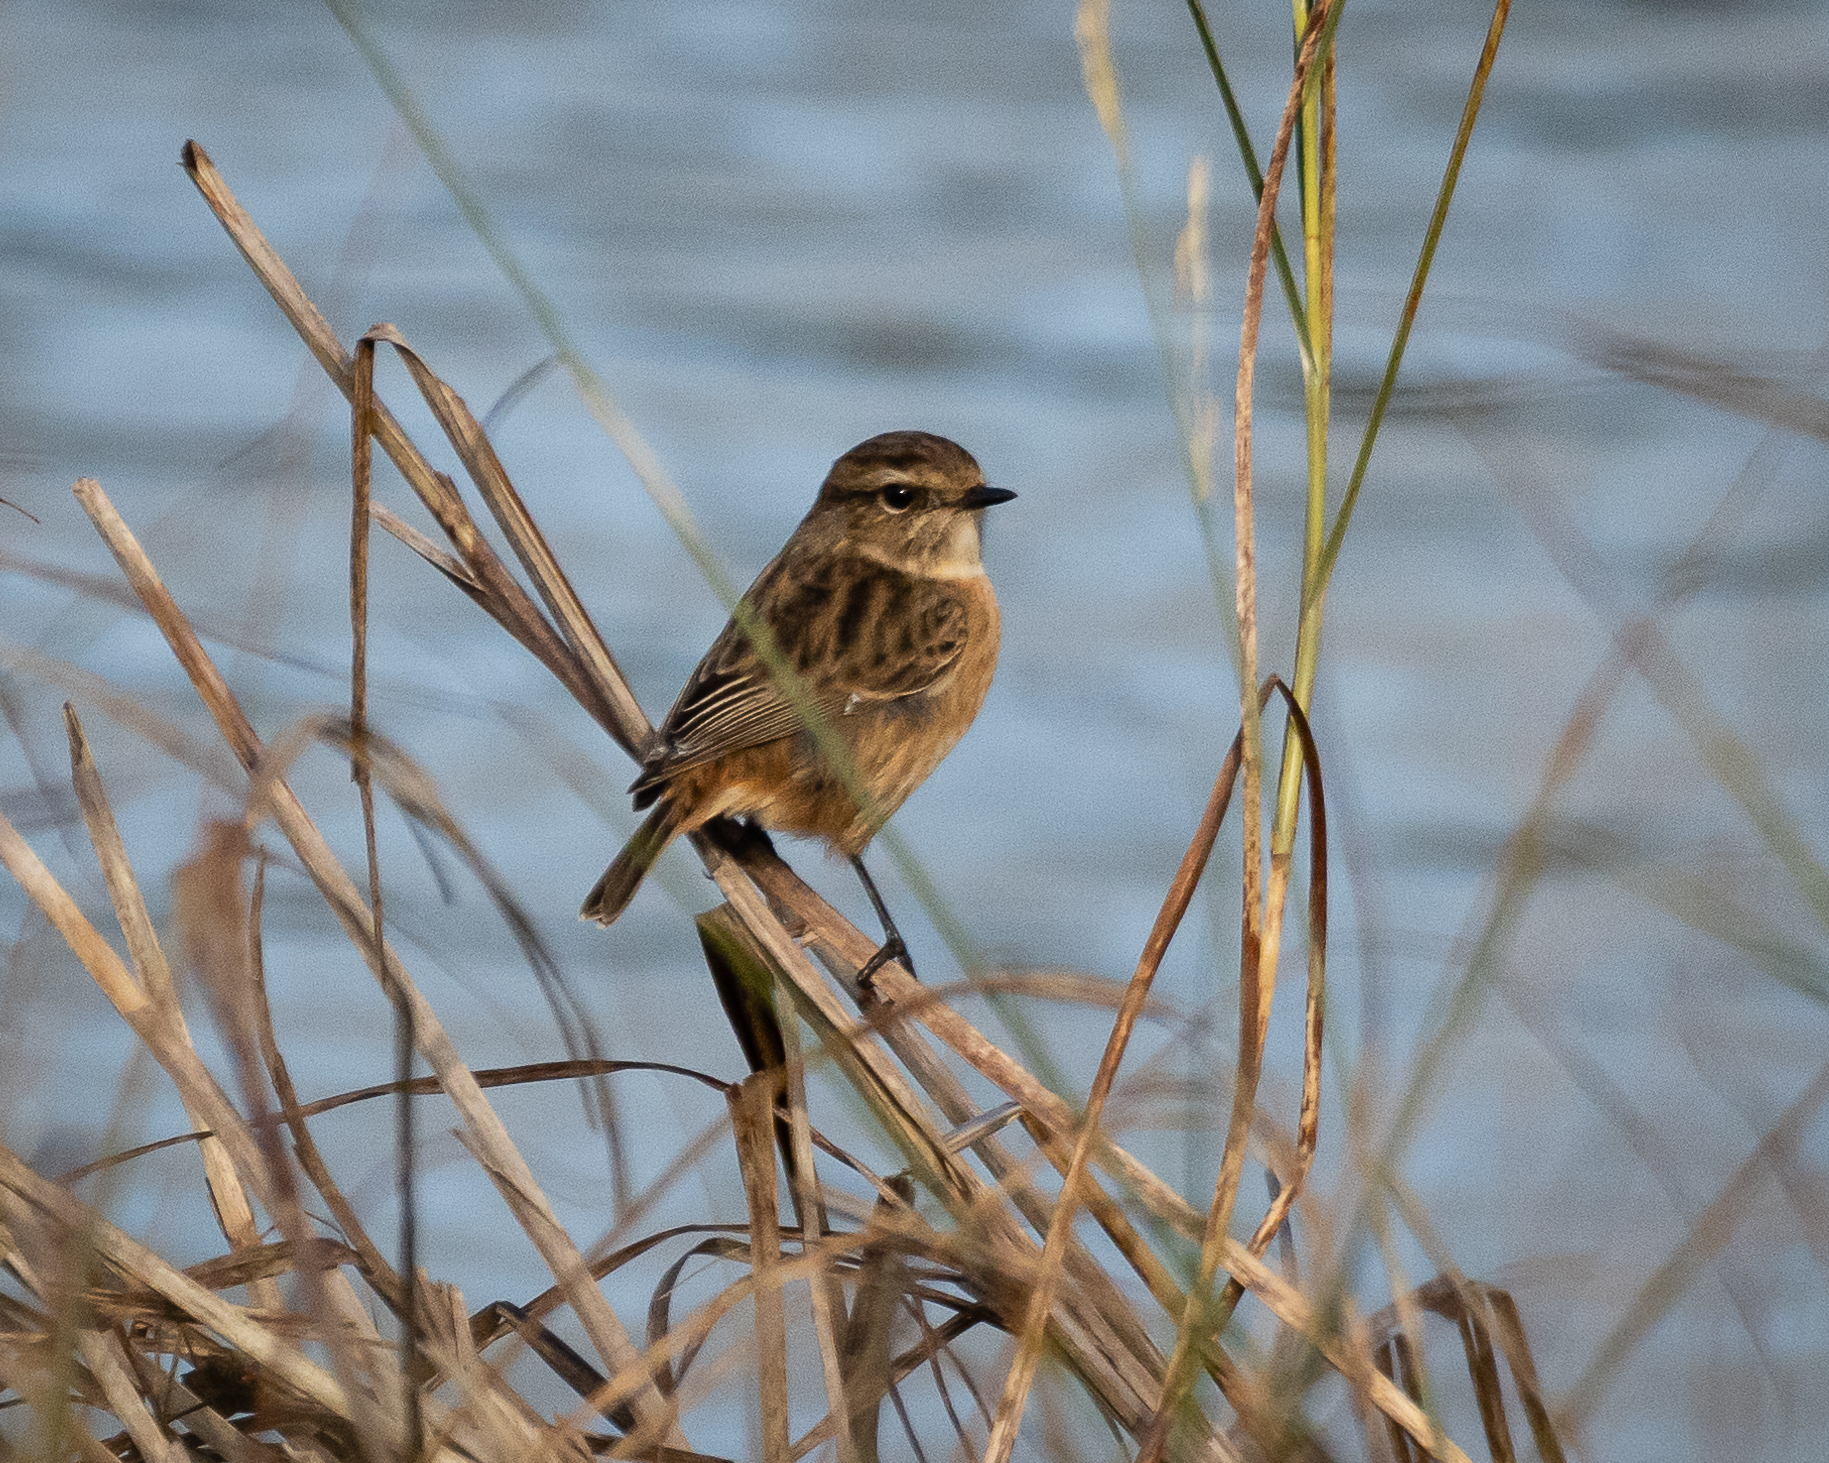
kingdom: Animalia
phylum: Chordata
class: Aves
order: Passeriformes
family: Muscicapidae
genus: Saxicola
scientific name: Saxicola rubicola
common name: European stonechat
